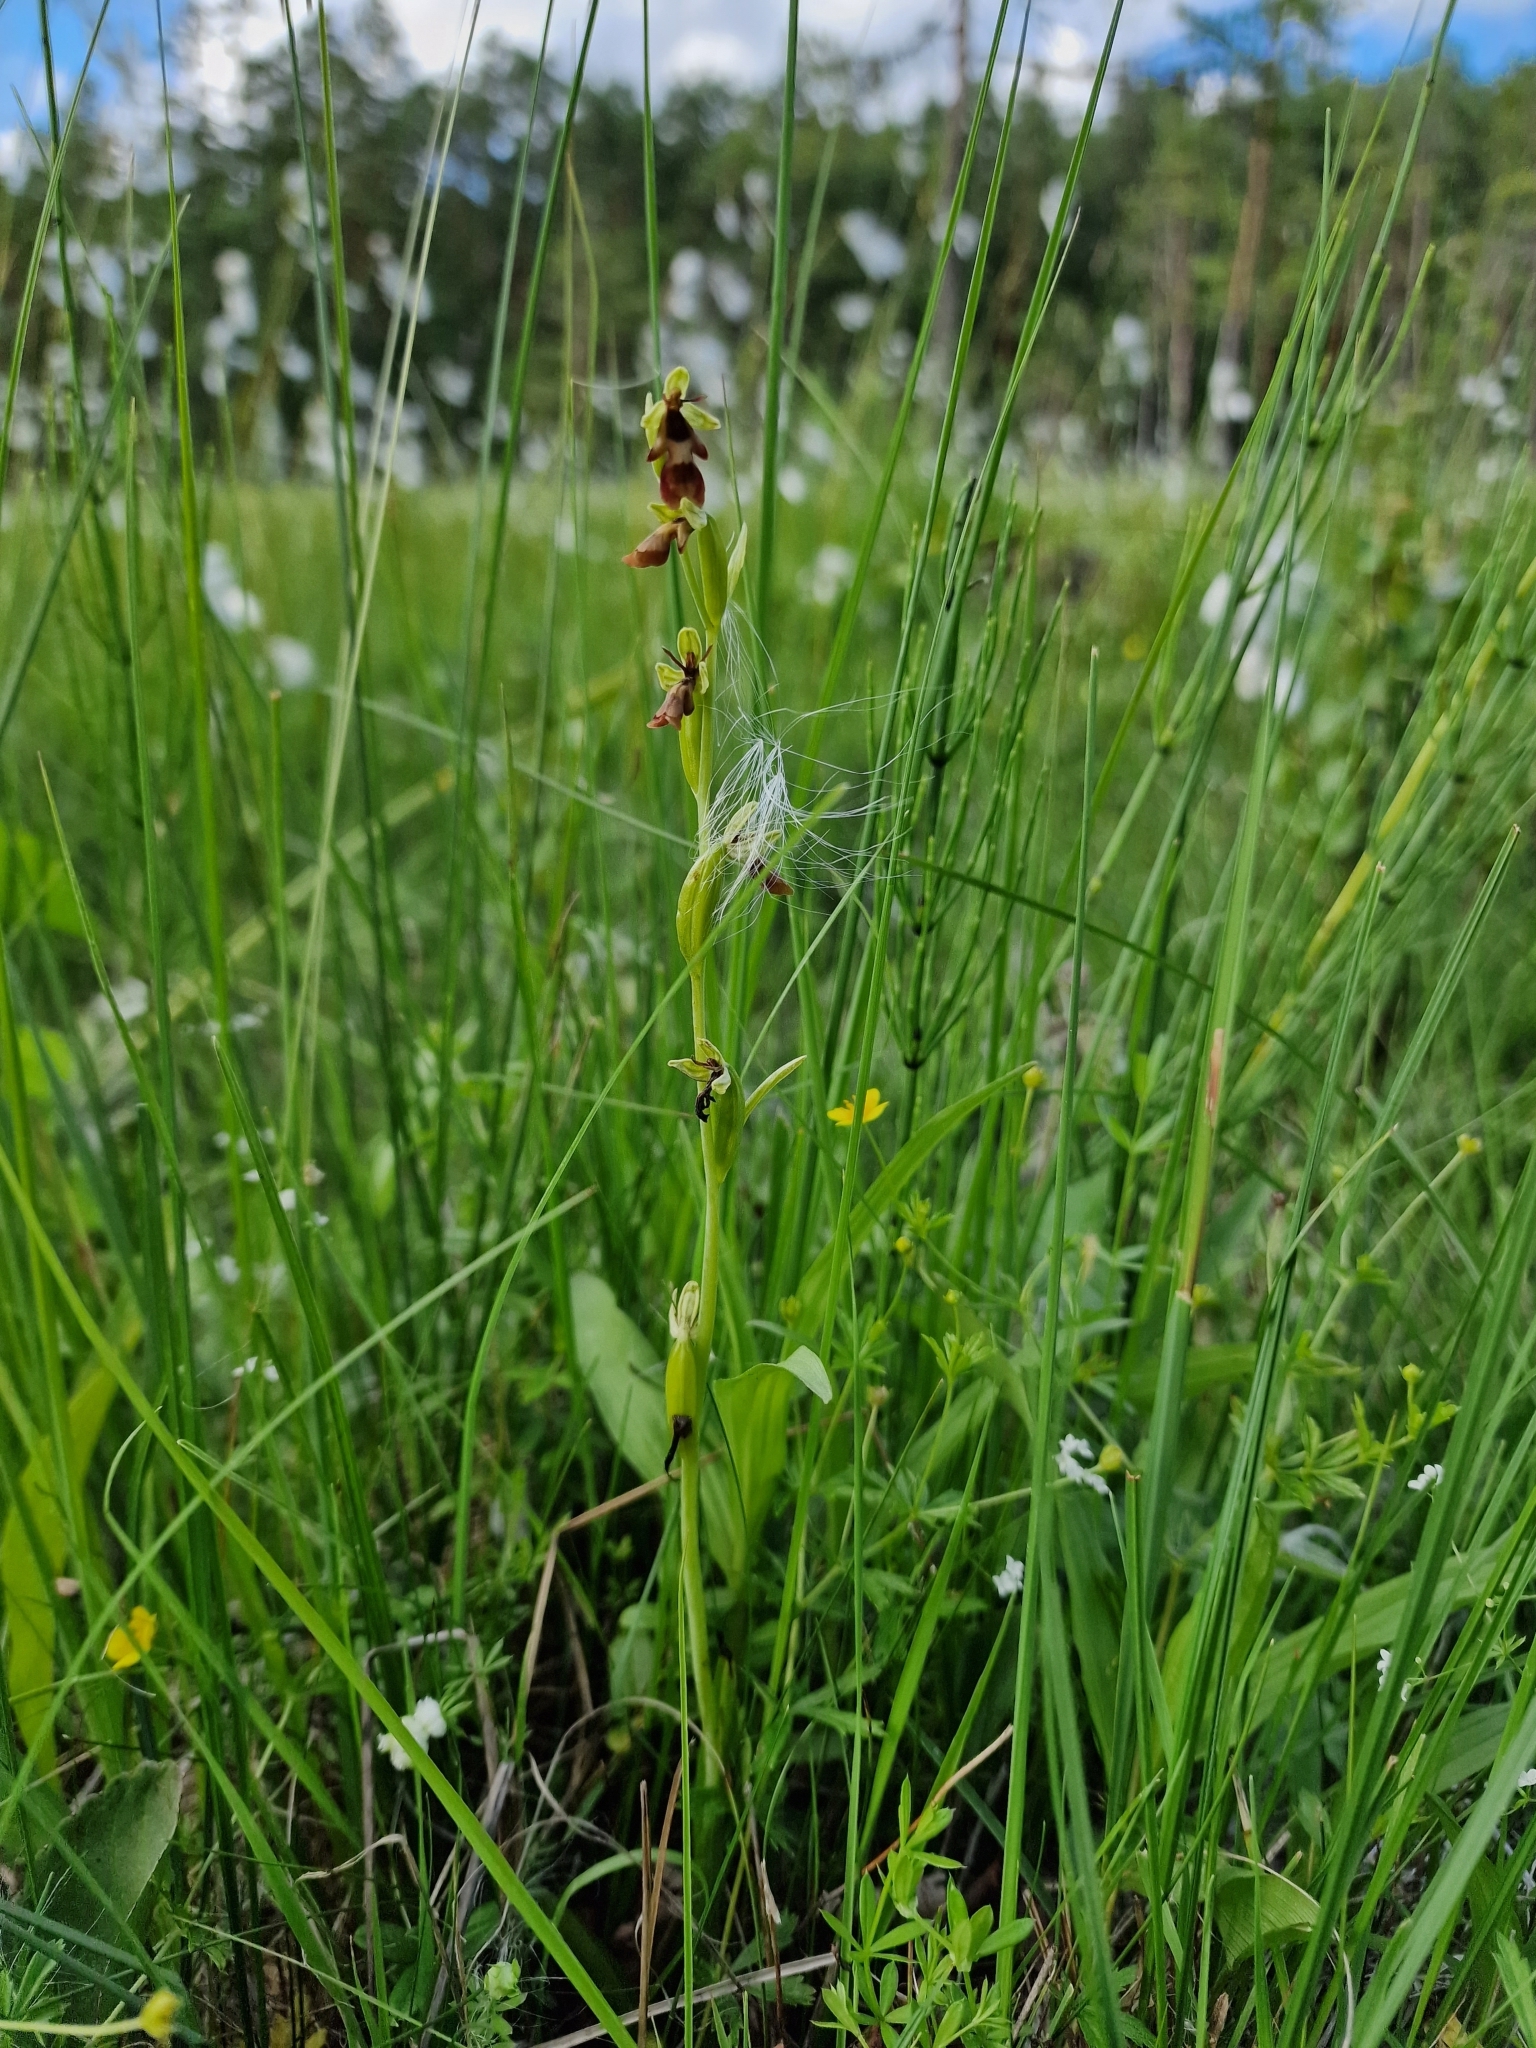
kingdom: Plantae
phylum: Tracheophyta
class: Liliopsida
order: Asparagales
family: Orchidaceae
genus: Ophrys
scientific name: Ophrys insectifera
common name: Fly orchid
